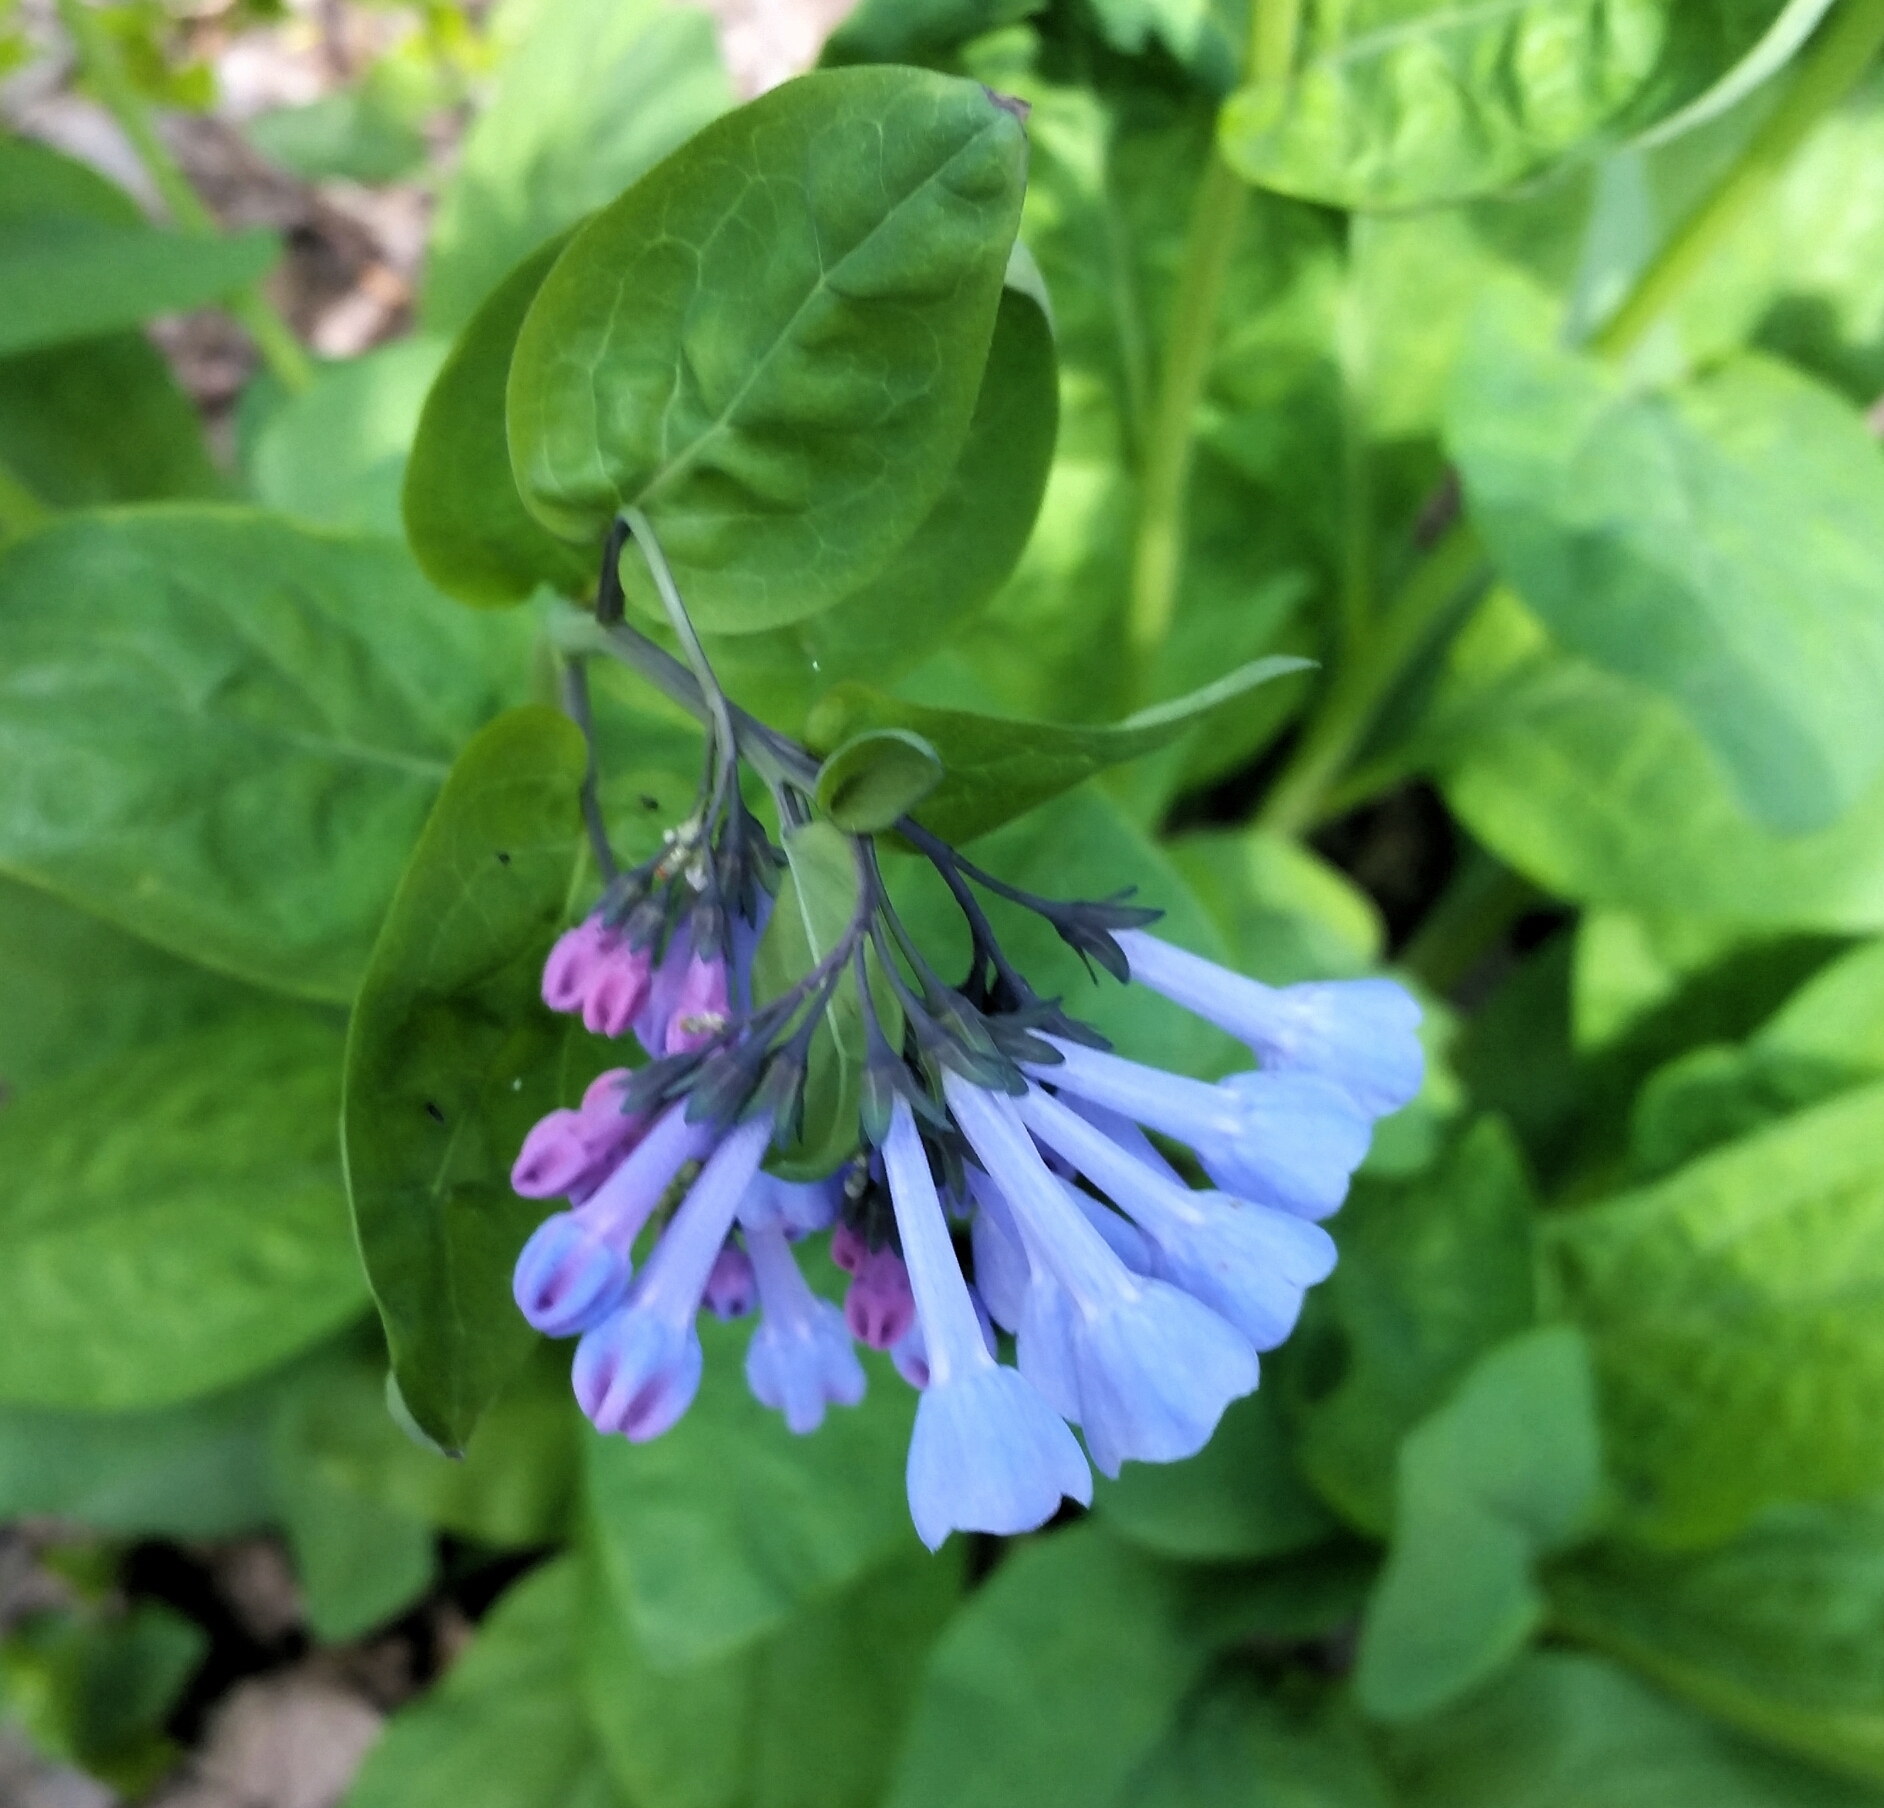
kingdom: Plantae
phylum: Tracheophyta
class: Magnoliopsida
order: Boraginales
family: Boraginaceae
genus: Mertensia
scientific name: Mertensia virginica
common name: Virginia bluebells
